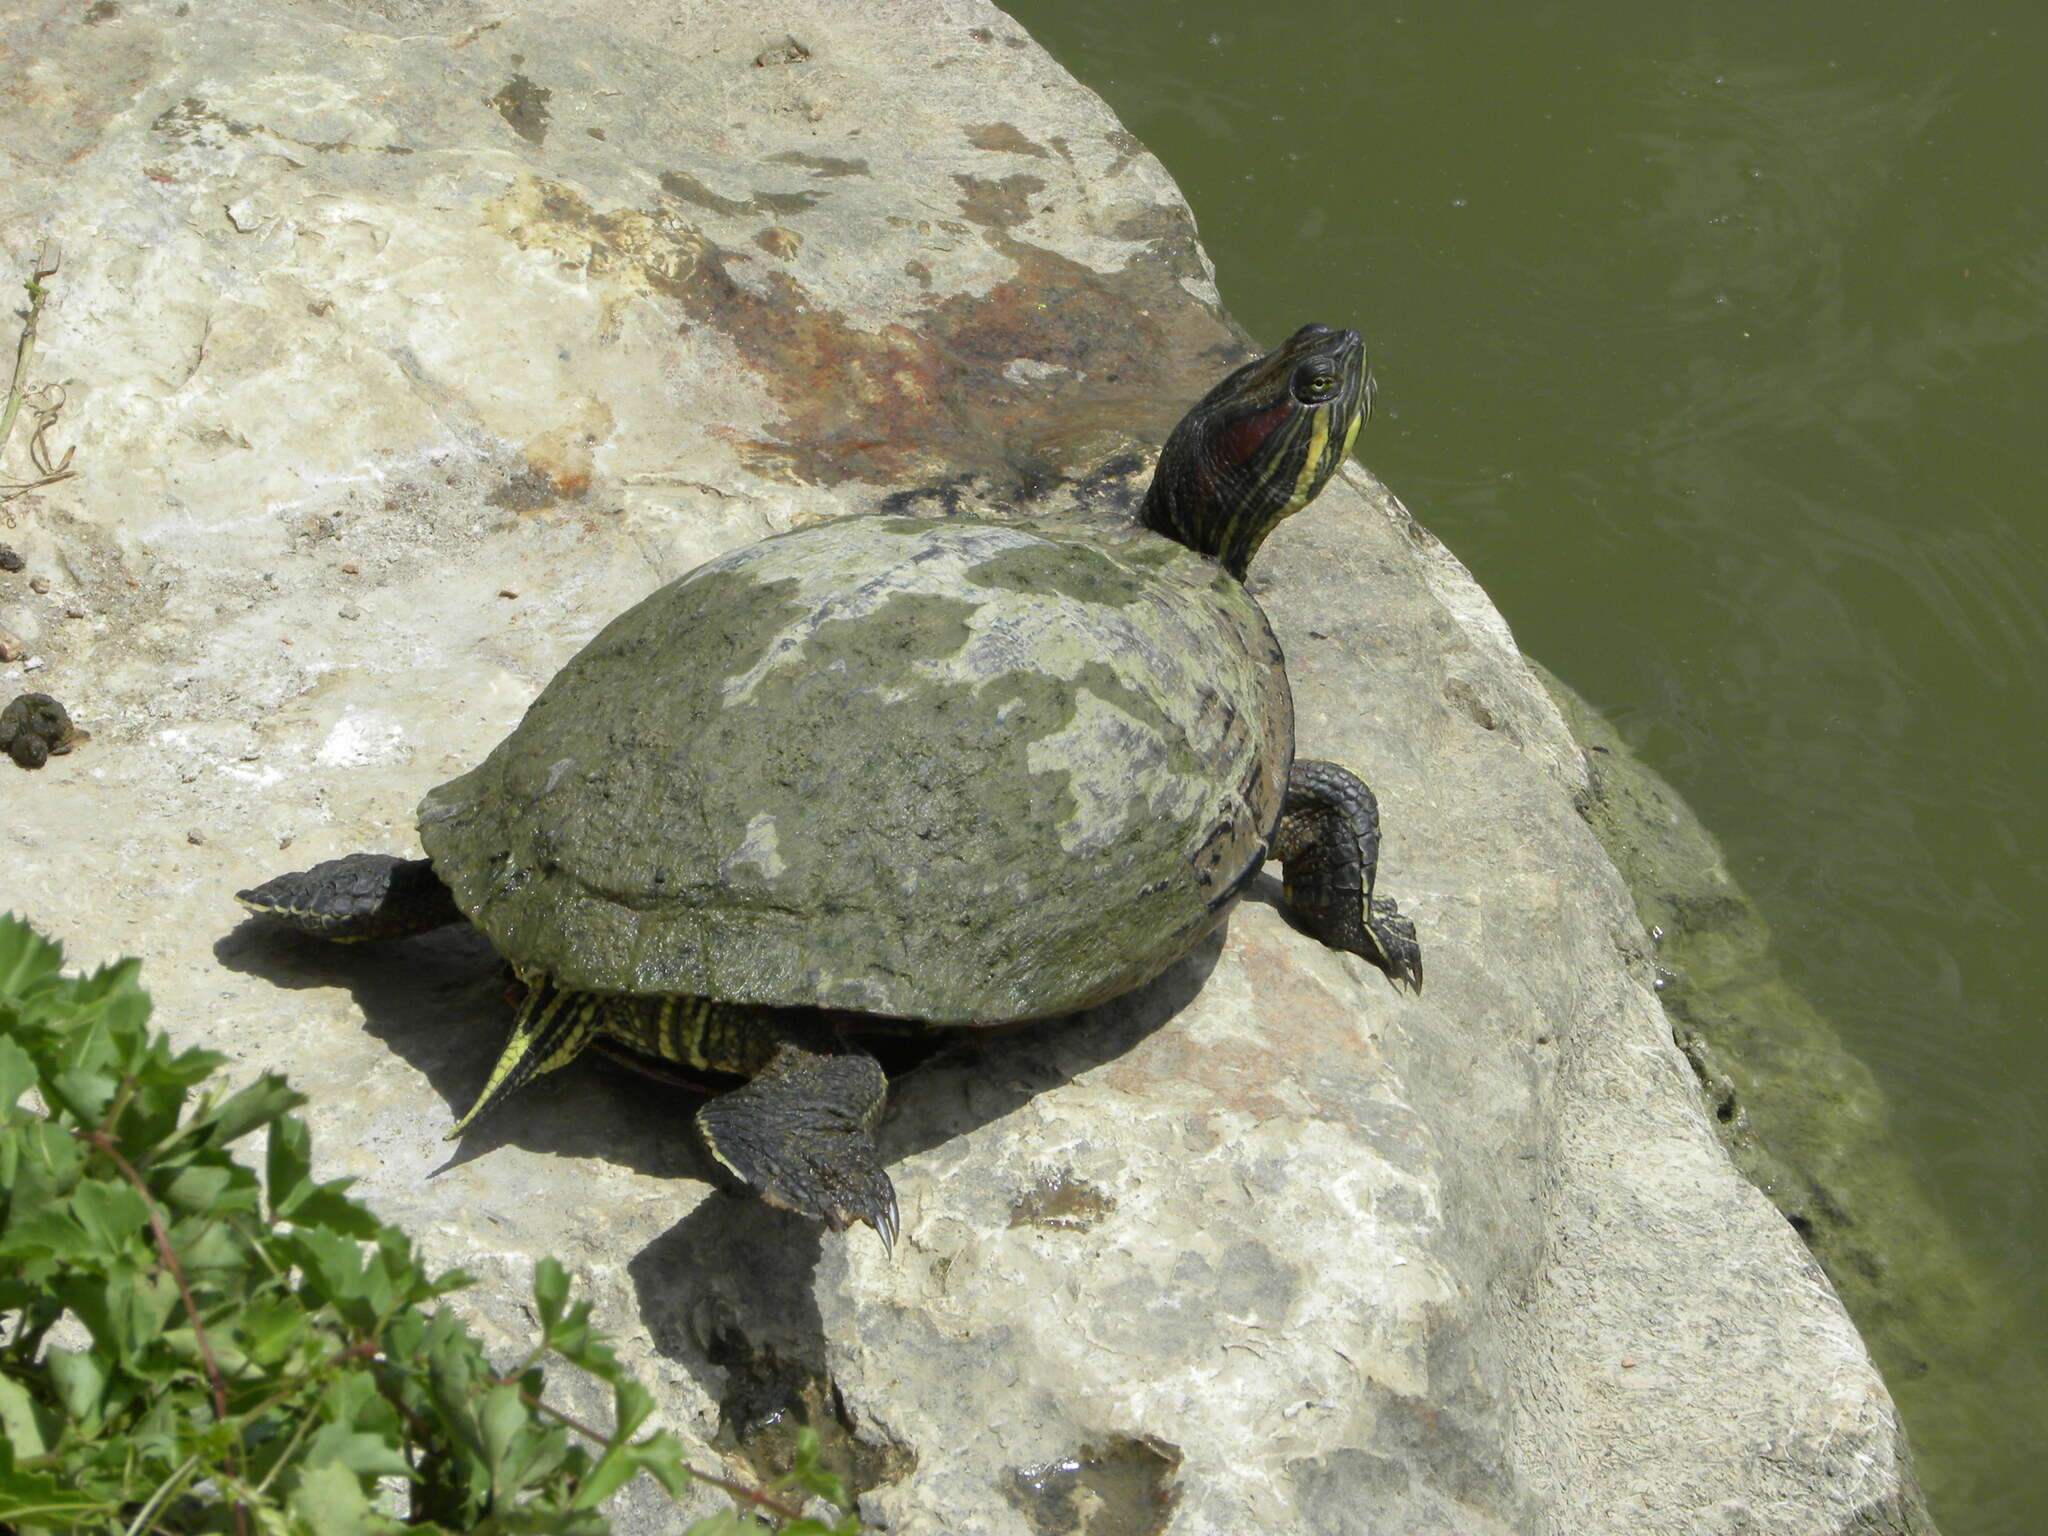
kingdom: Animalia
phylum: Chordata
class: Testudines
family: Emydidae
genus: Trachemys
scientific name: Trachemys scripta
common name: Slider
